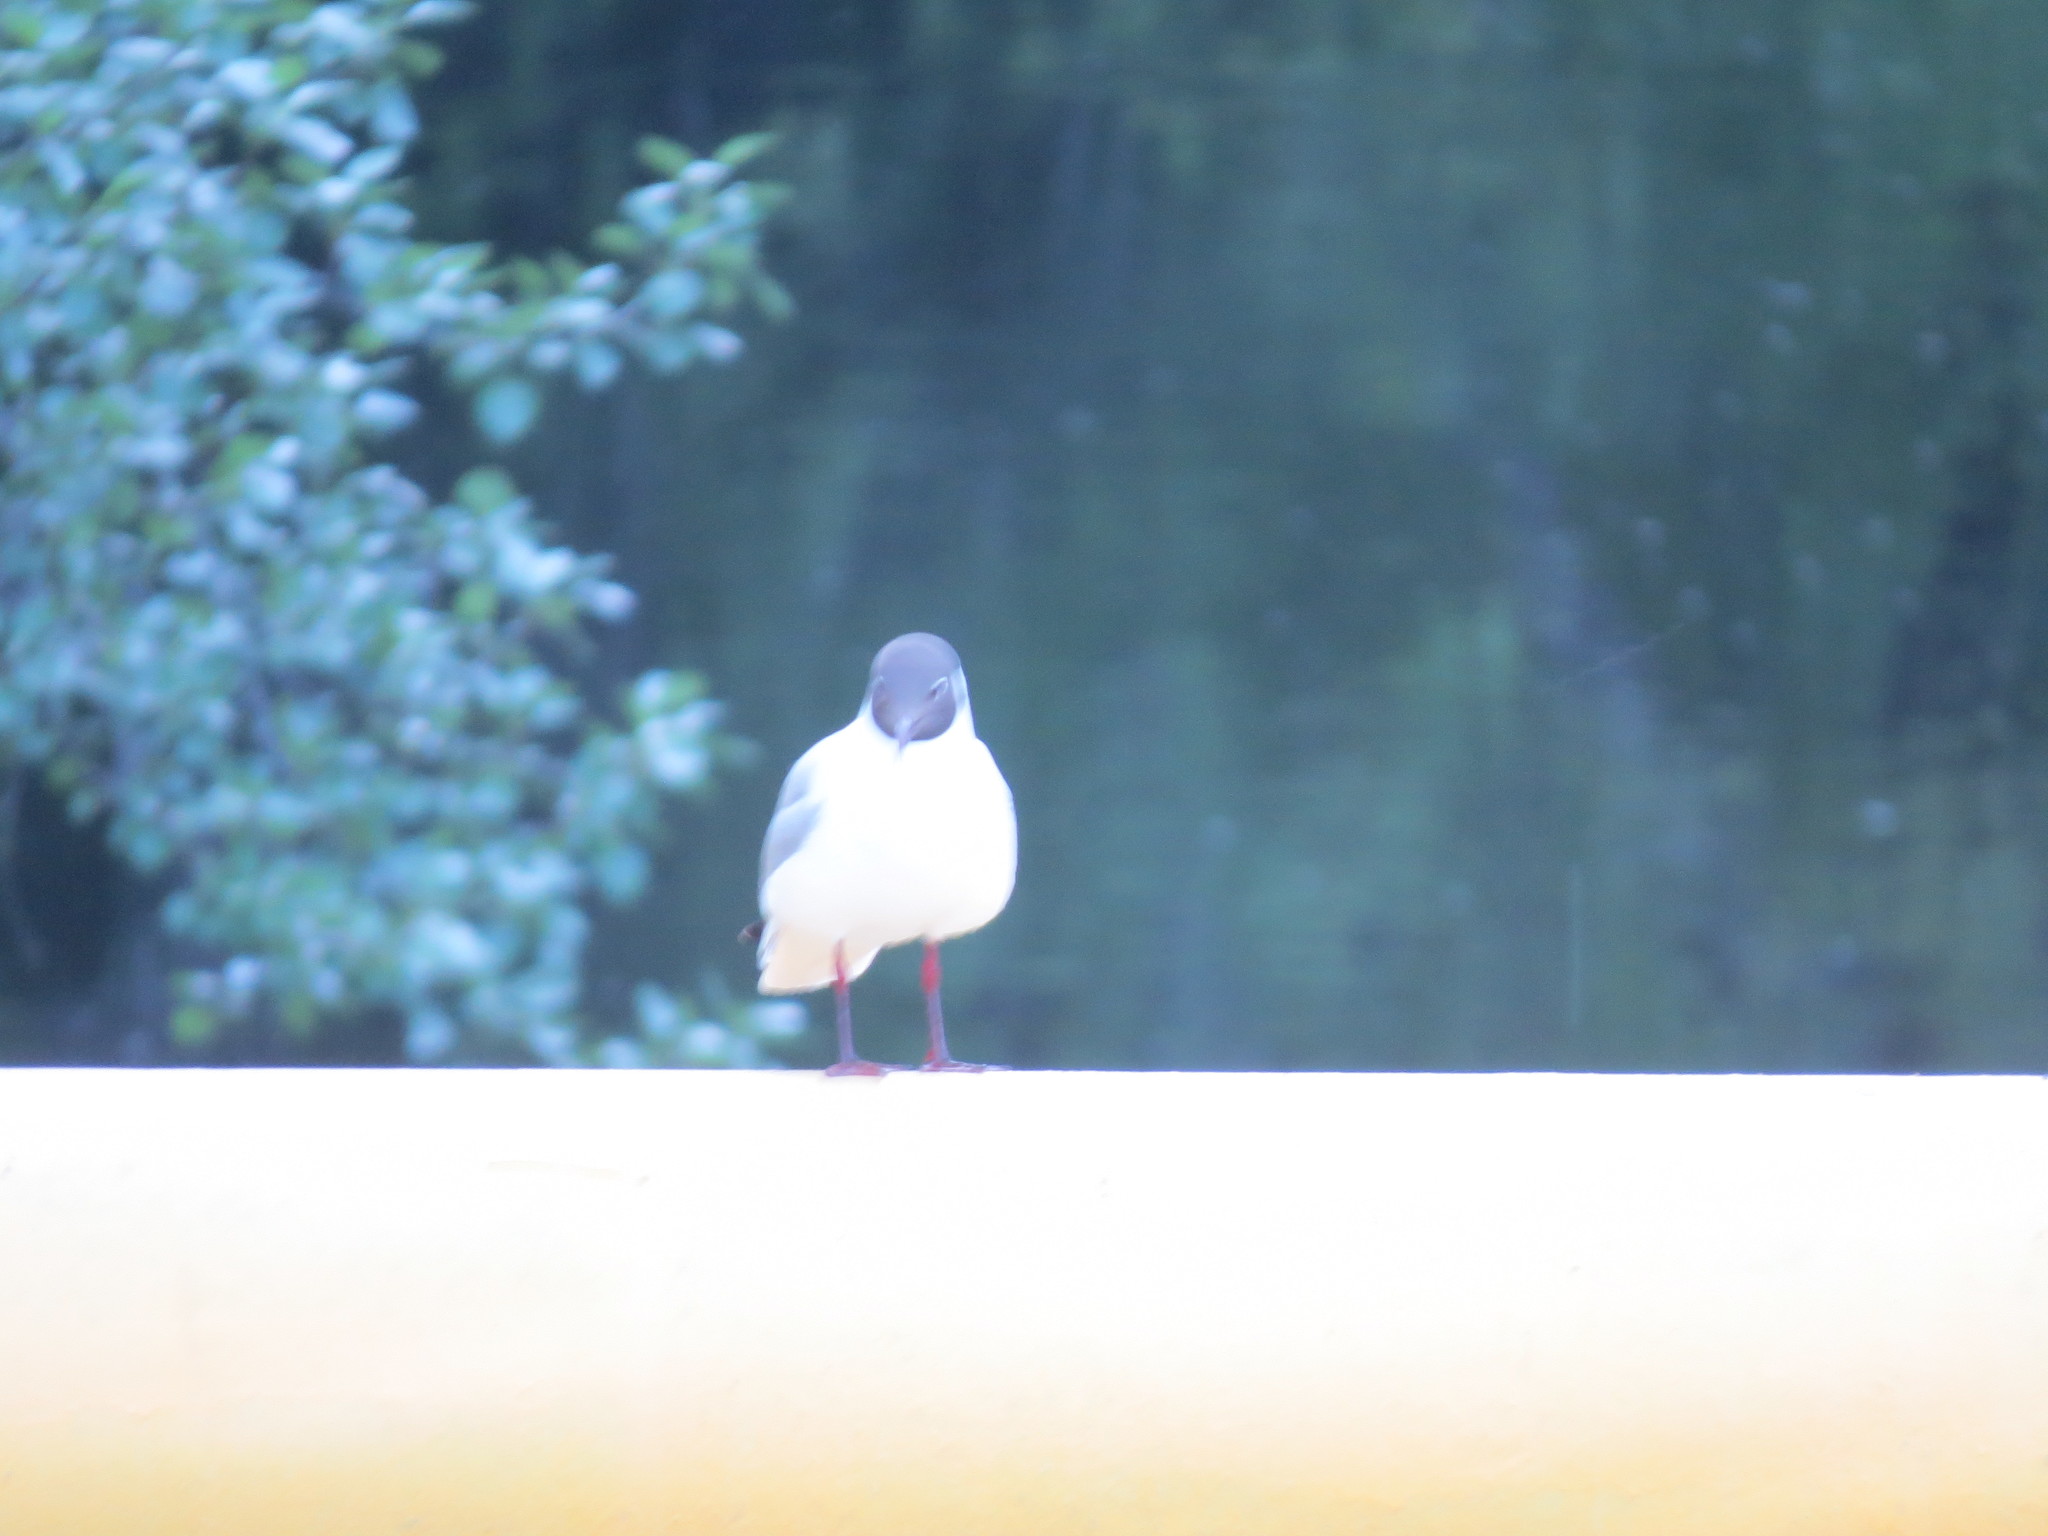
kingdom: Animalia
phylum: Chordata
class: Aves
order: Charadriiformes
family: Laridae
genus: Chroicocephalus
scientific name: Chroicocephalus ridibundus
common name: Black-headed gull
